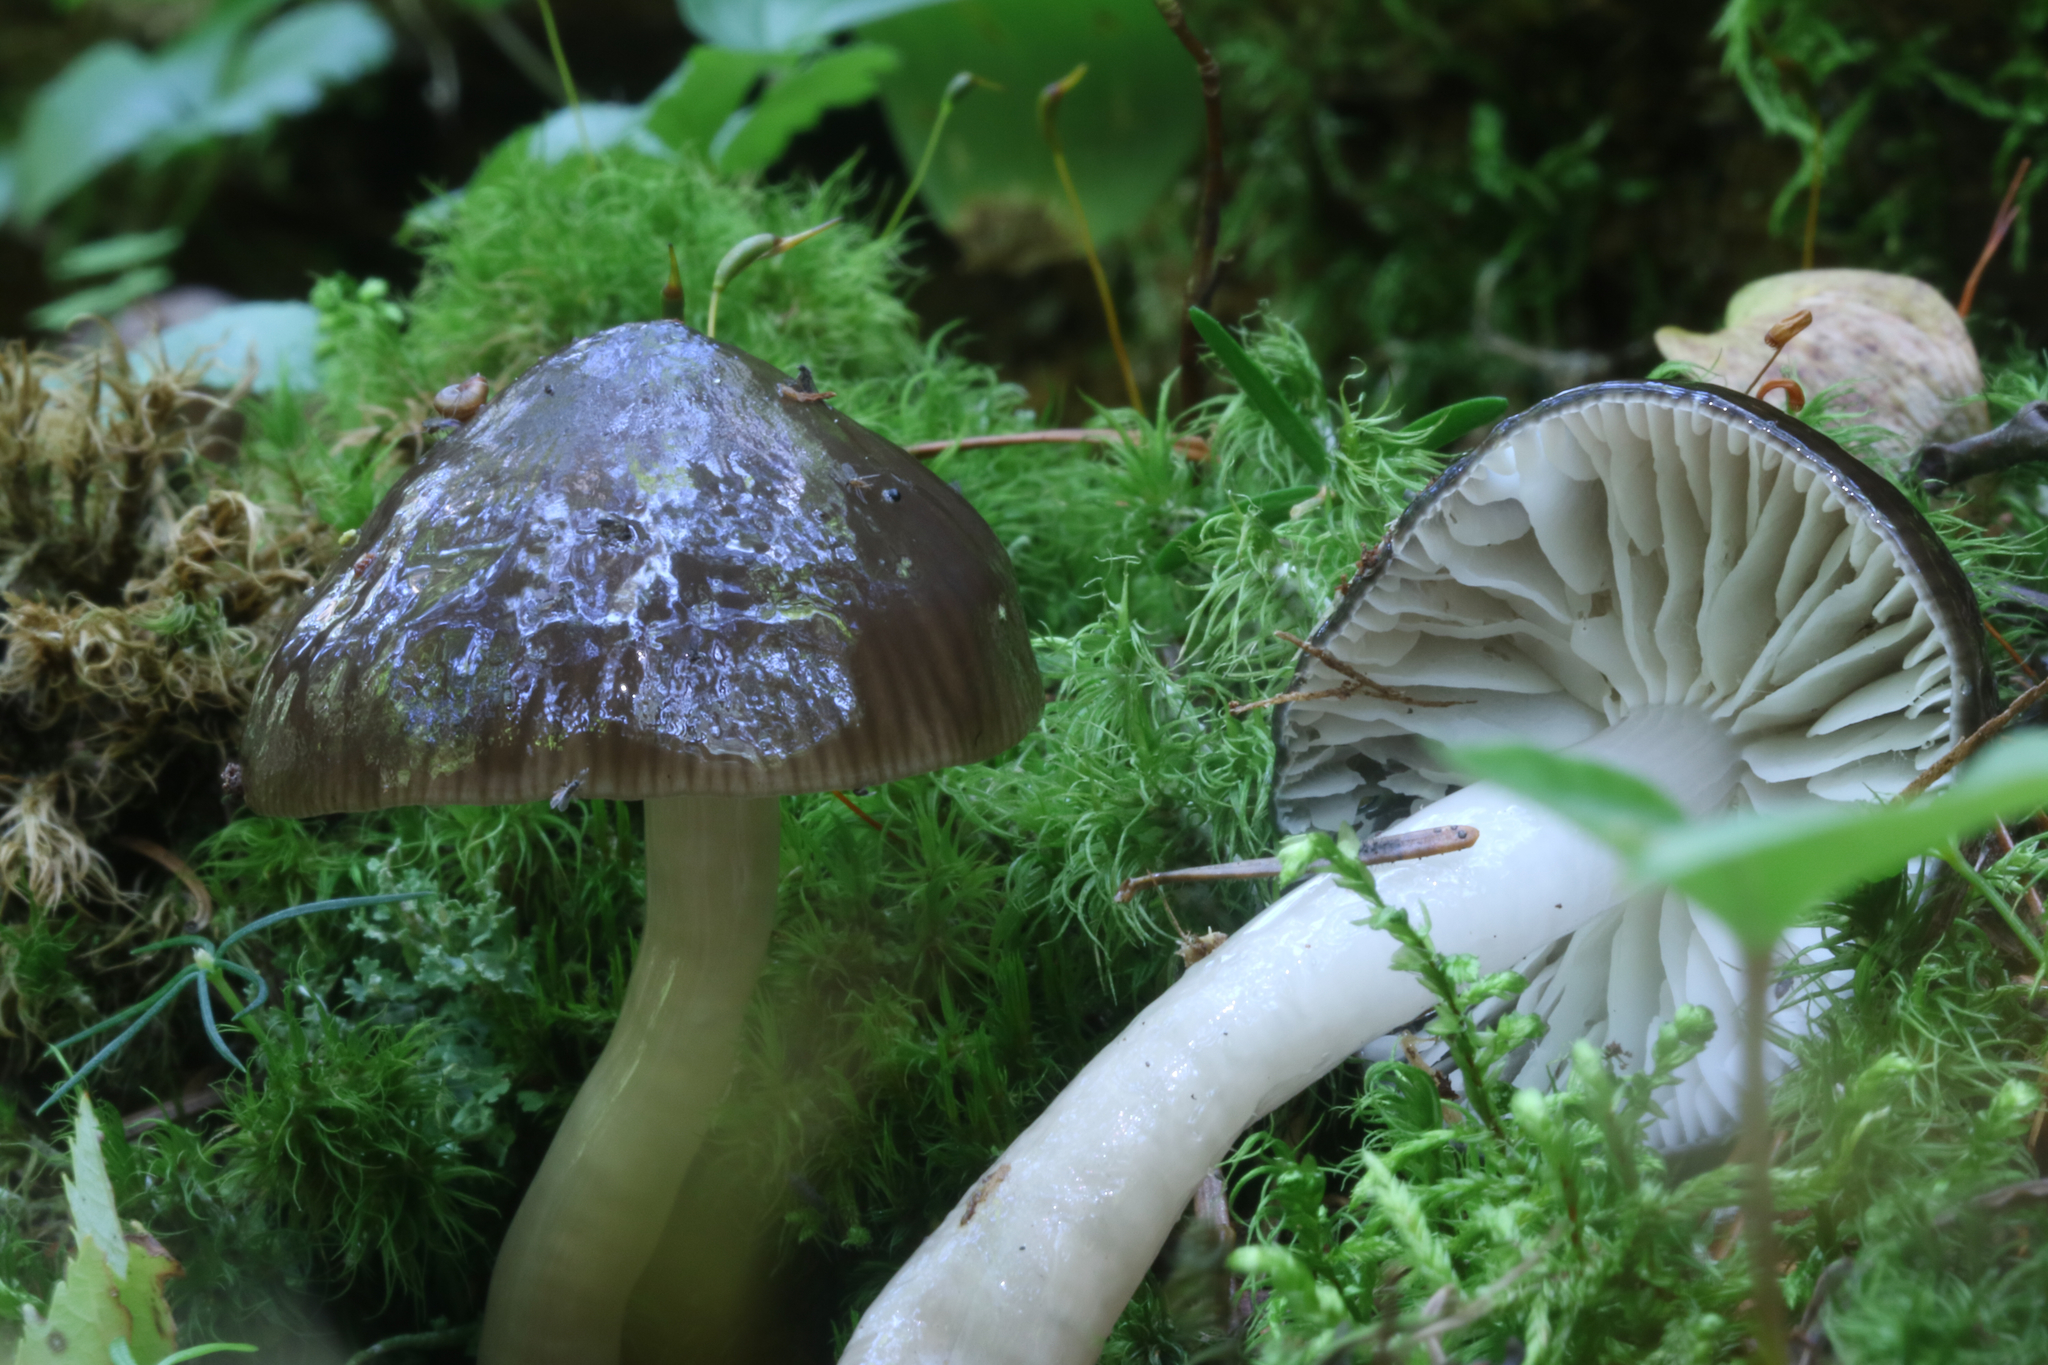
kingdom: Fungi
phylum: Basidiomycota
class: Agaricomycetes
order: Agaricales
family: Hygrophoraceae
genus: Gliophorus
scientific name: Gliophorus irrigatus
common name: Slimy waxcap
